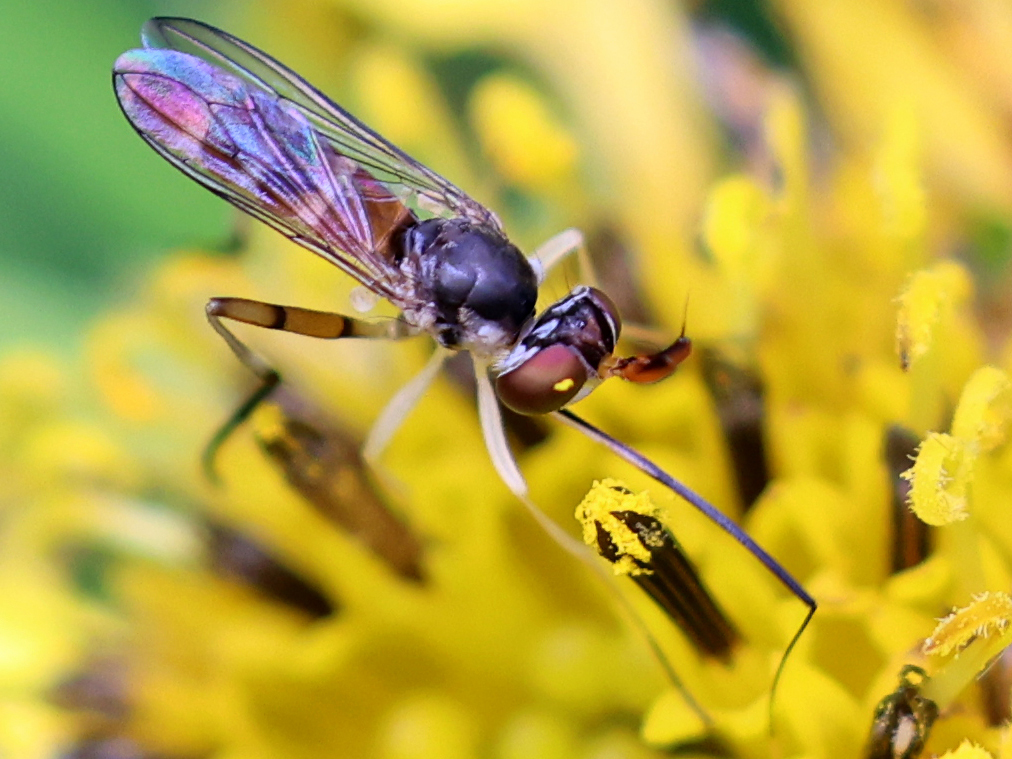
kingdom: Animalia
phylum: Arthropoda
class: Insecta
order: Diptera
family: Conopidae
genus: Stylogaster
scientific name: Stylogaster neglecta
